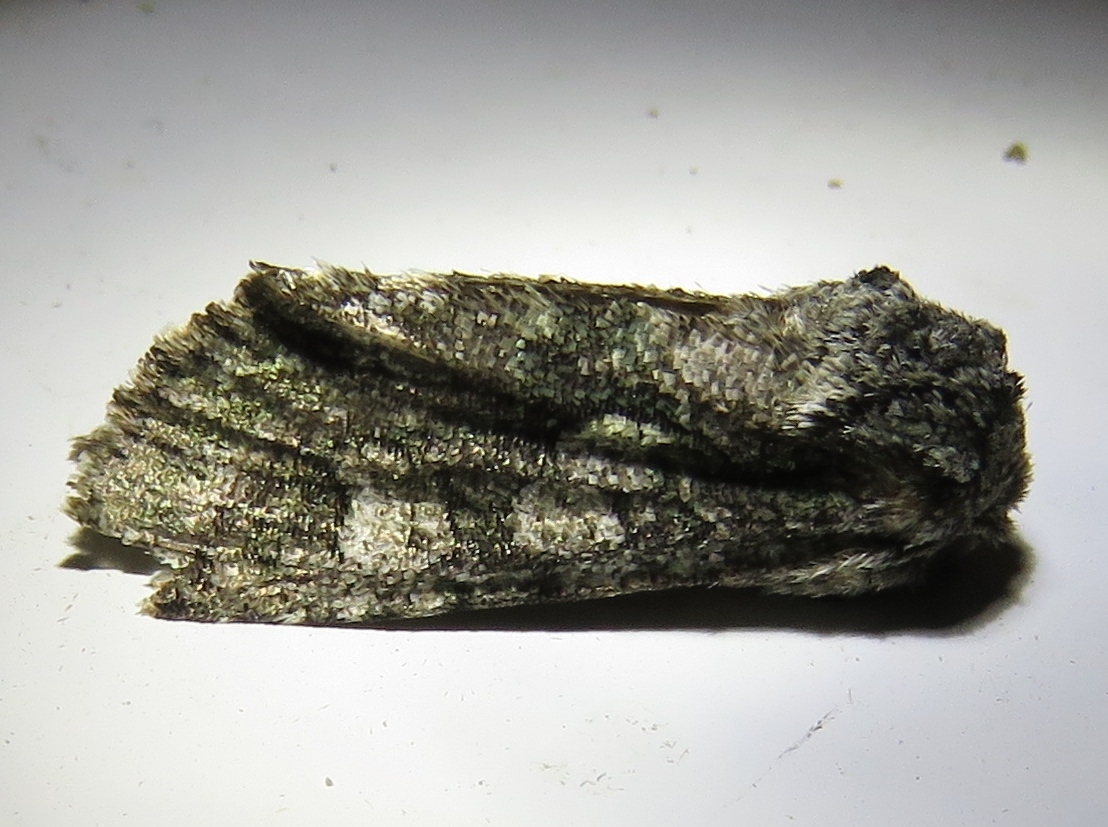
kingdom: Animalia
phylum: Arthropoda
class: Insecta
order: Lepidoptera
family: Noctuidae
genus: Psaphida
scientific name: Psaphida grotei
